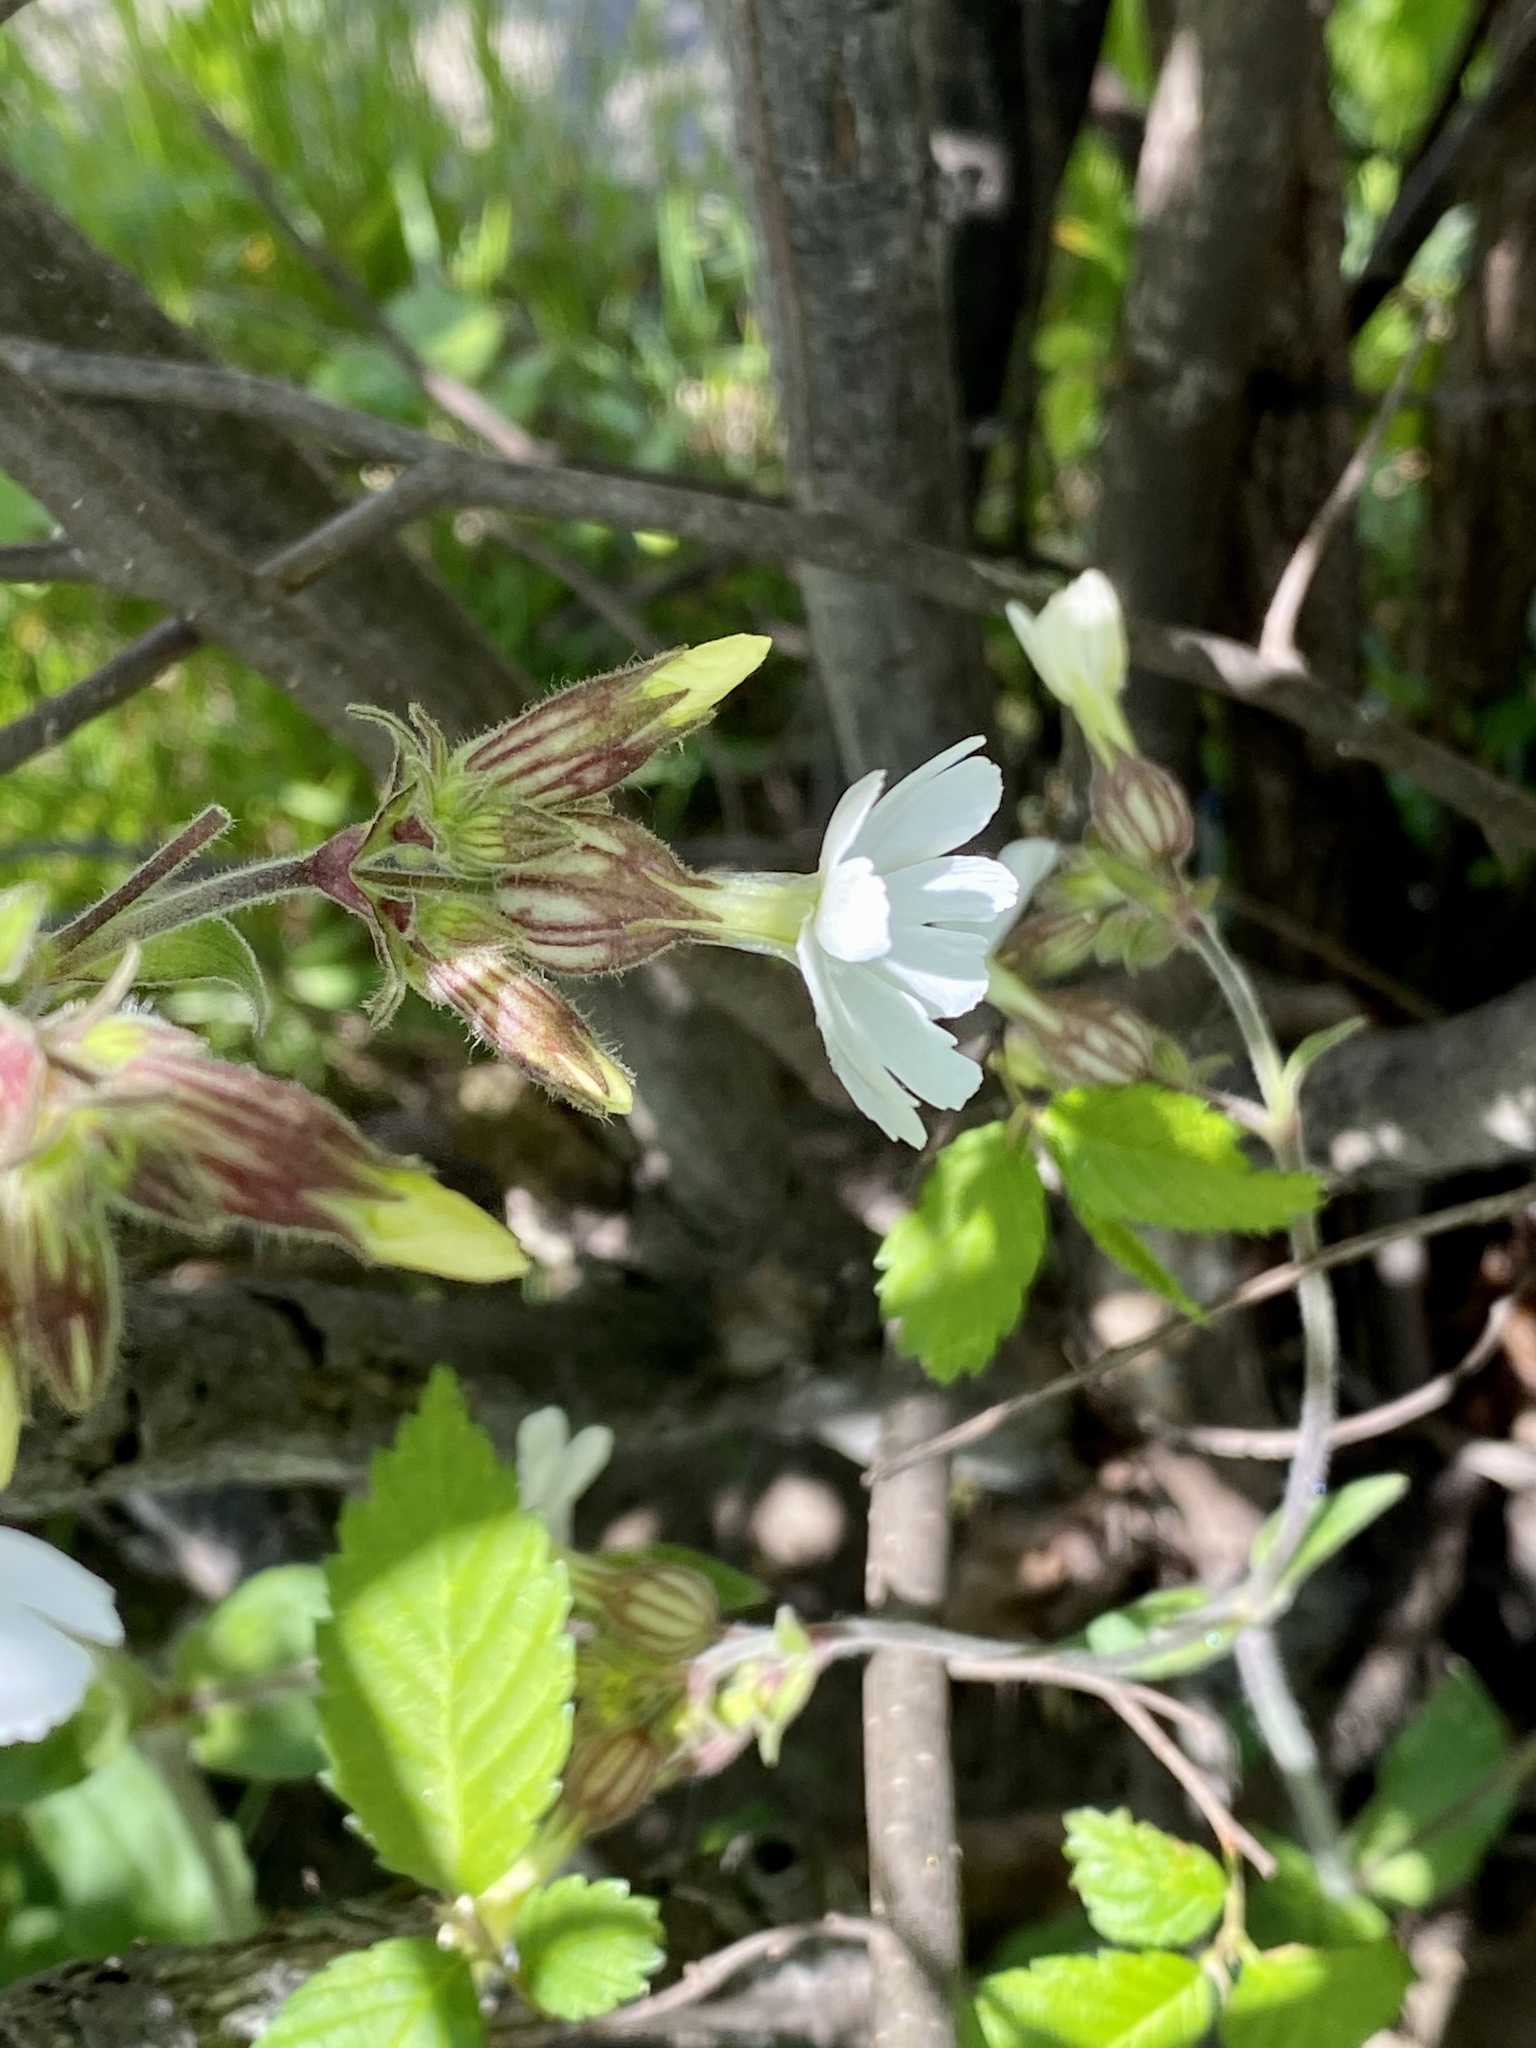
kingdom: Plantae
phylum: Tracheophyta
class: Magnoliopsida
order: Caryophyllales
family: Caryophyllaceae
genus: Silene
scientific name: Silene latifolia
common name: White campion
